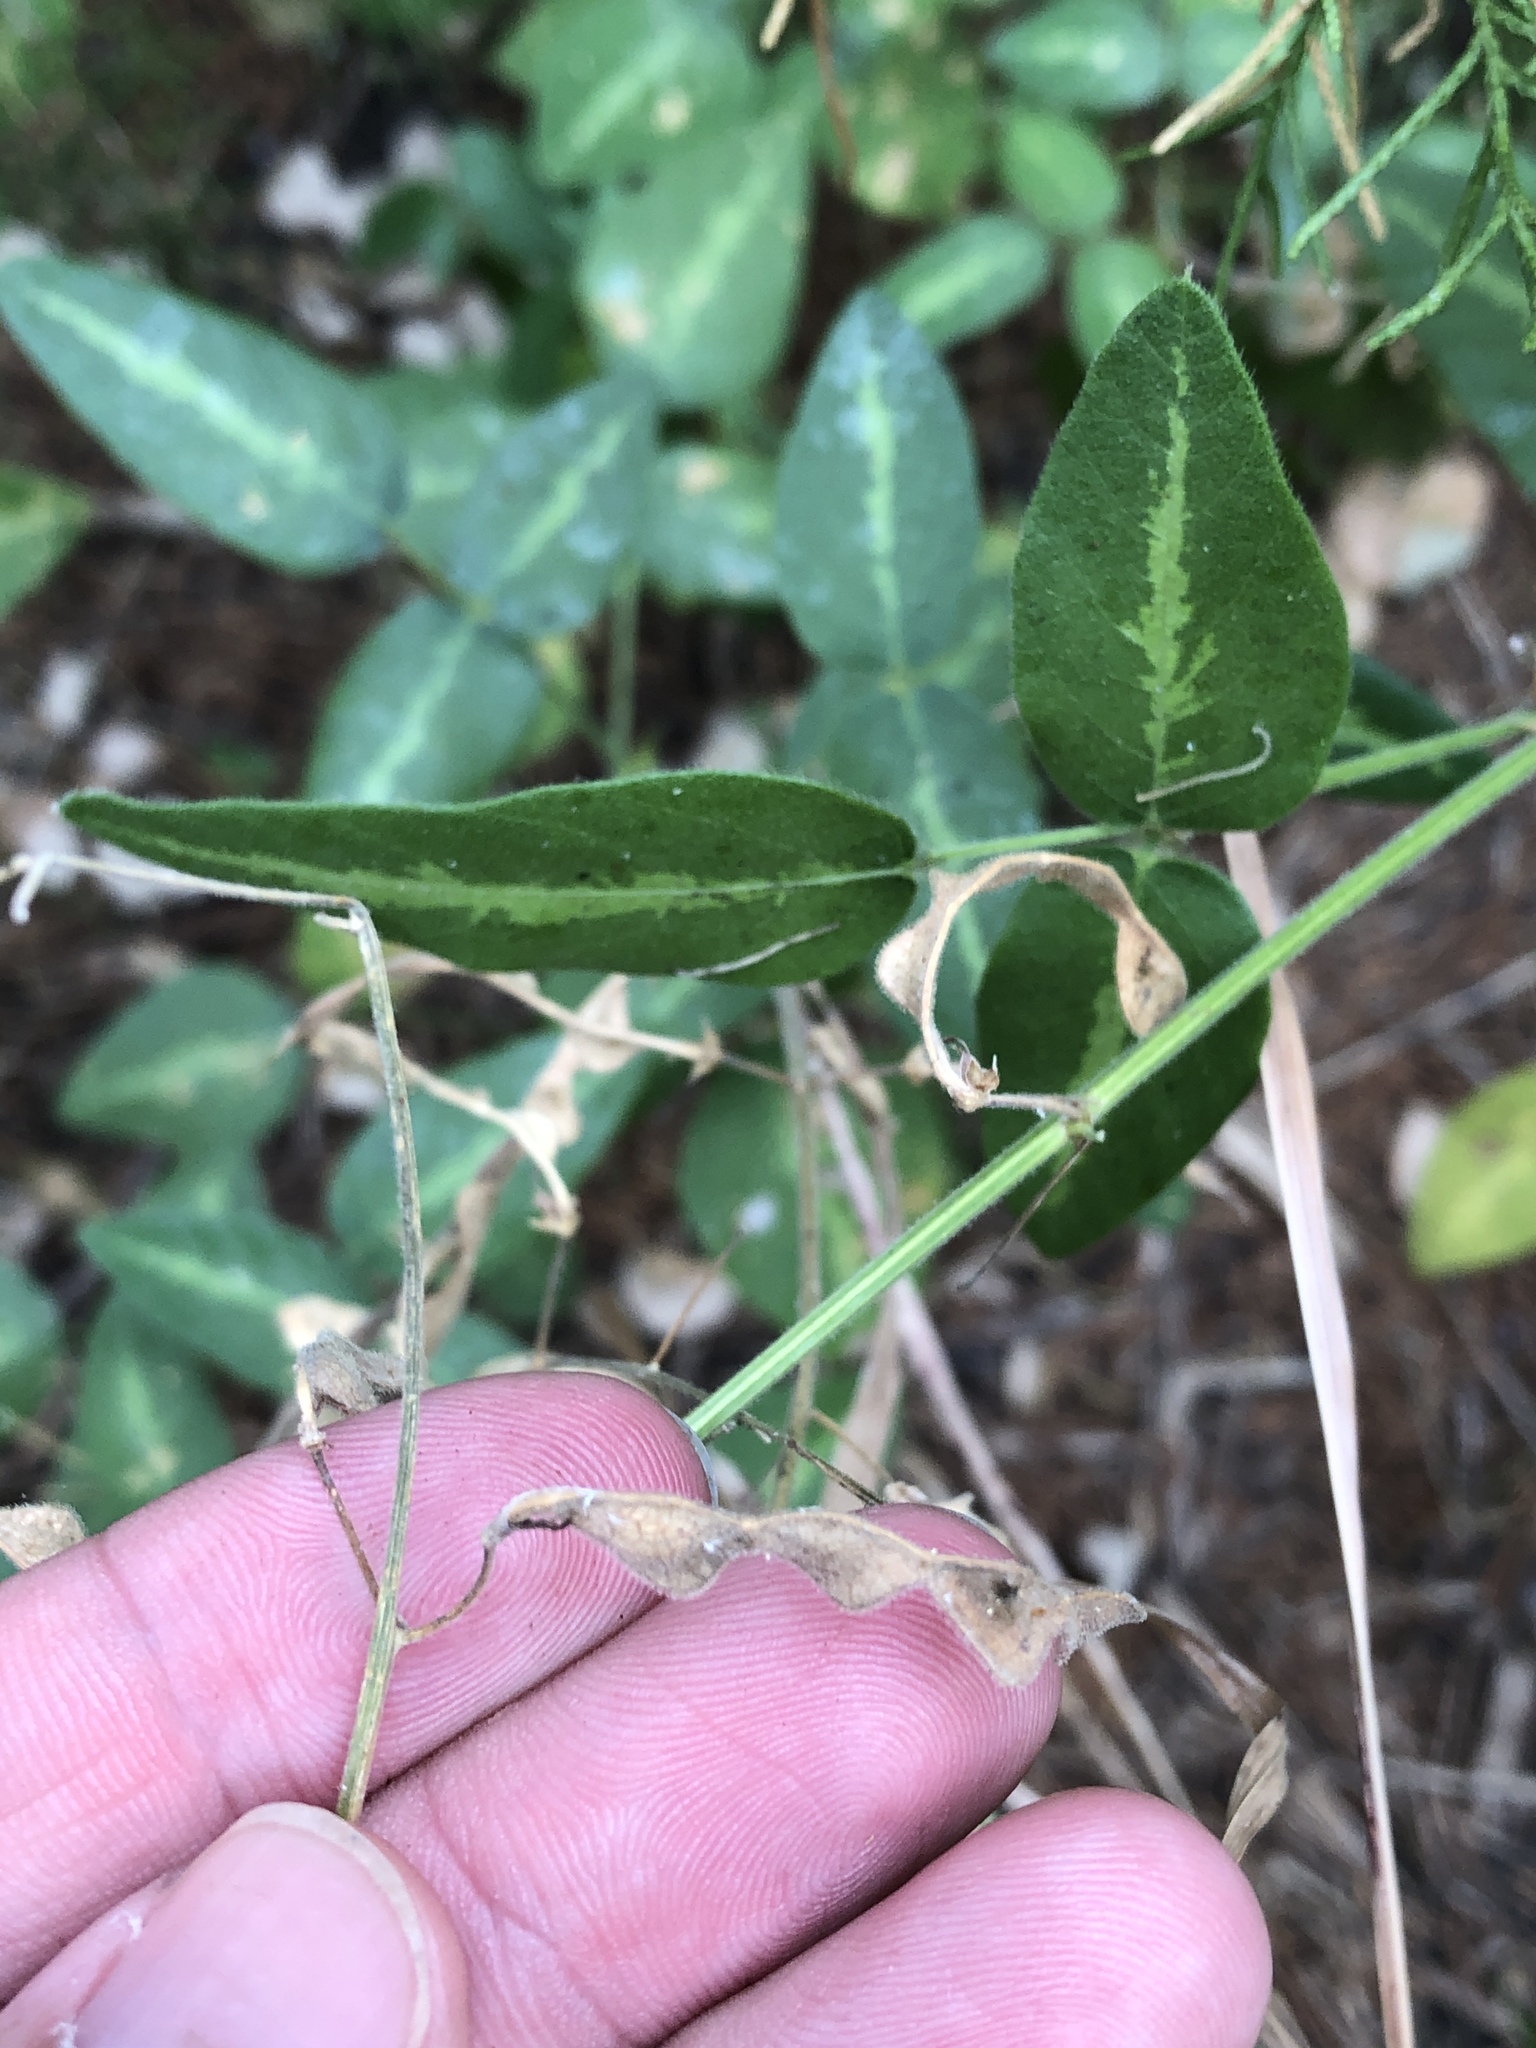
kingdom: Plantae
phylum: Tracheophyta
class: Magnoliopsida
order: Fabales
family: Fabaceae
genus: Desmodium
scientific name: Desmodium tweedyi
